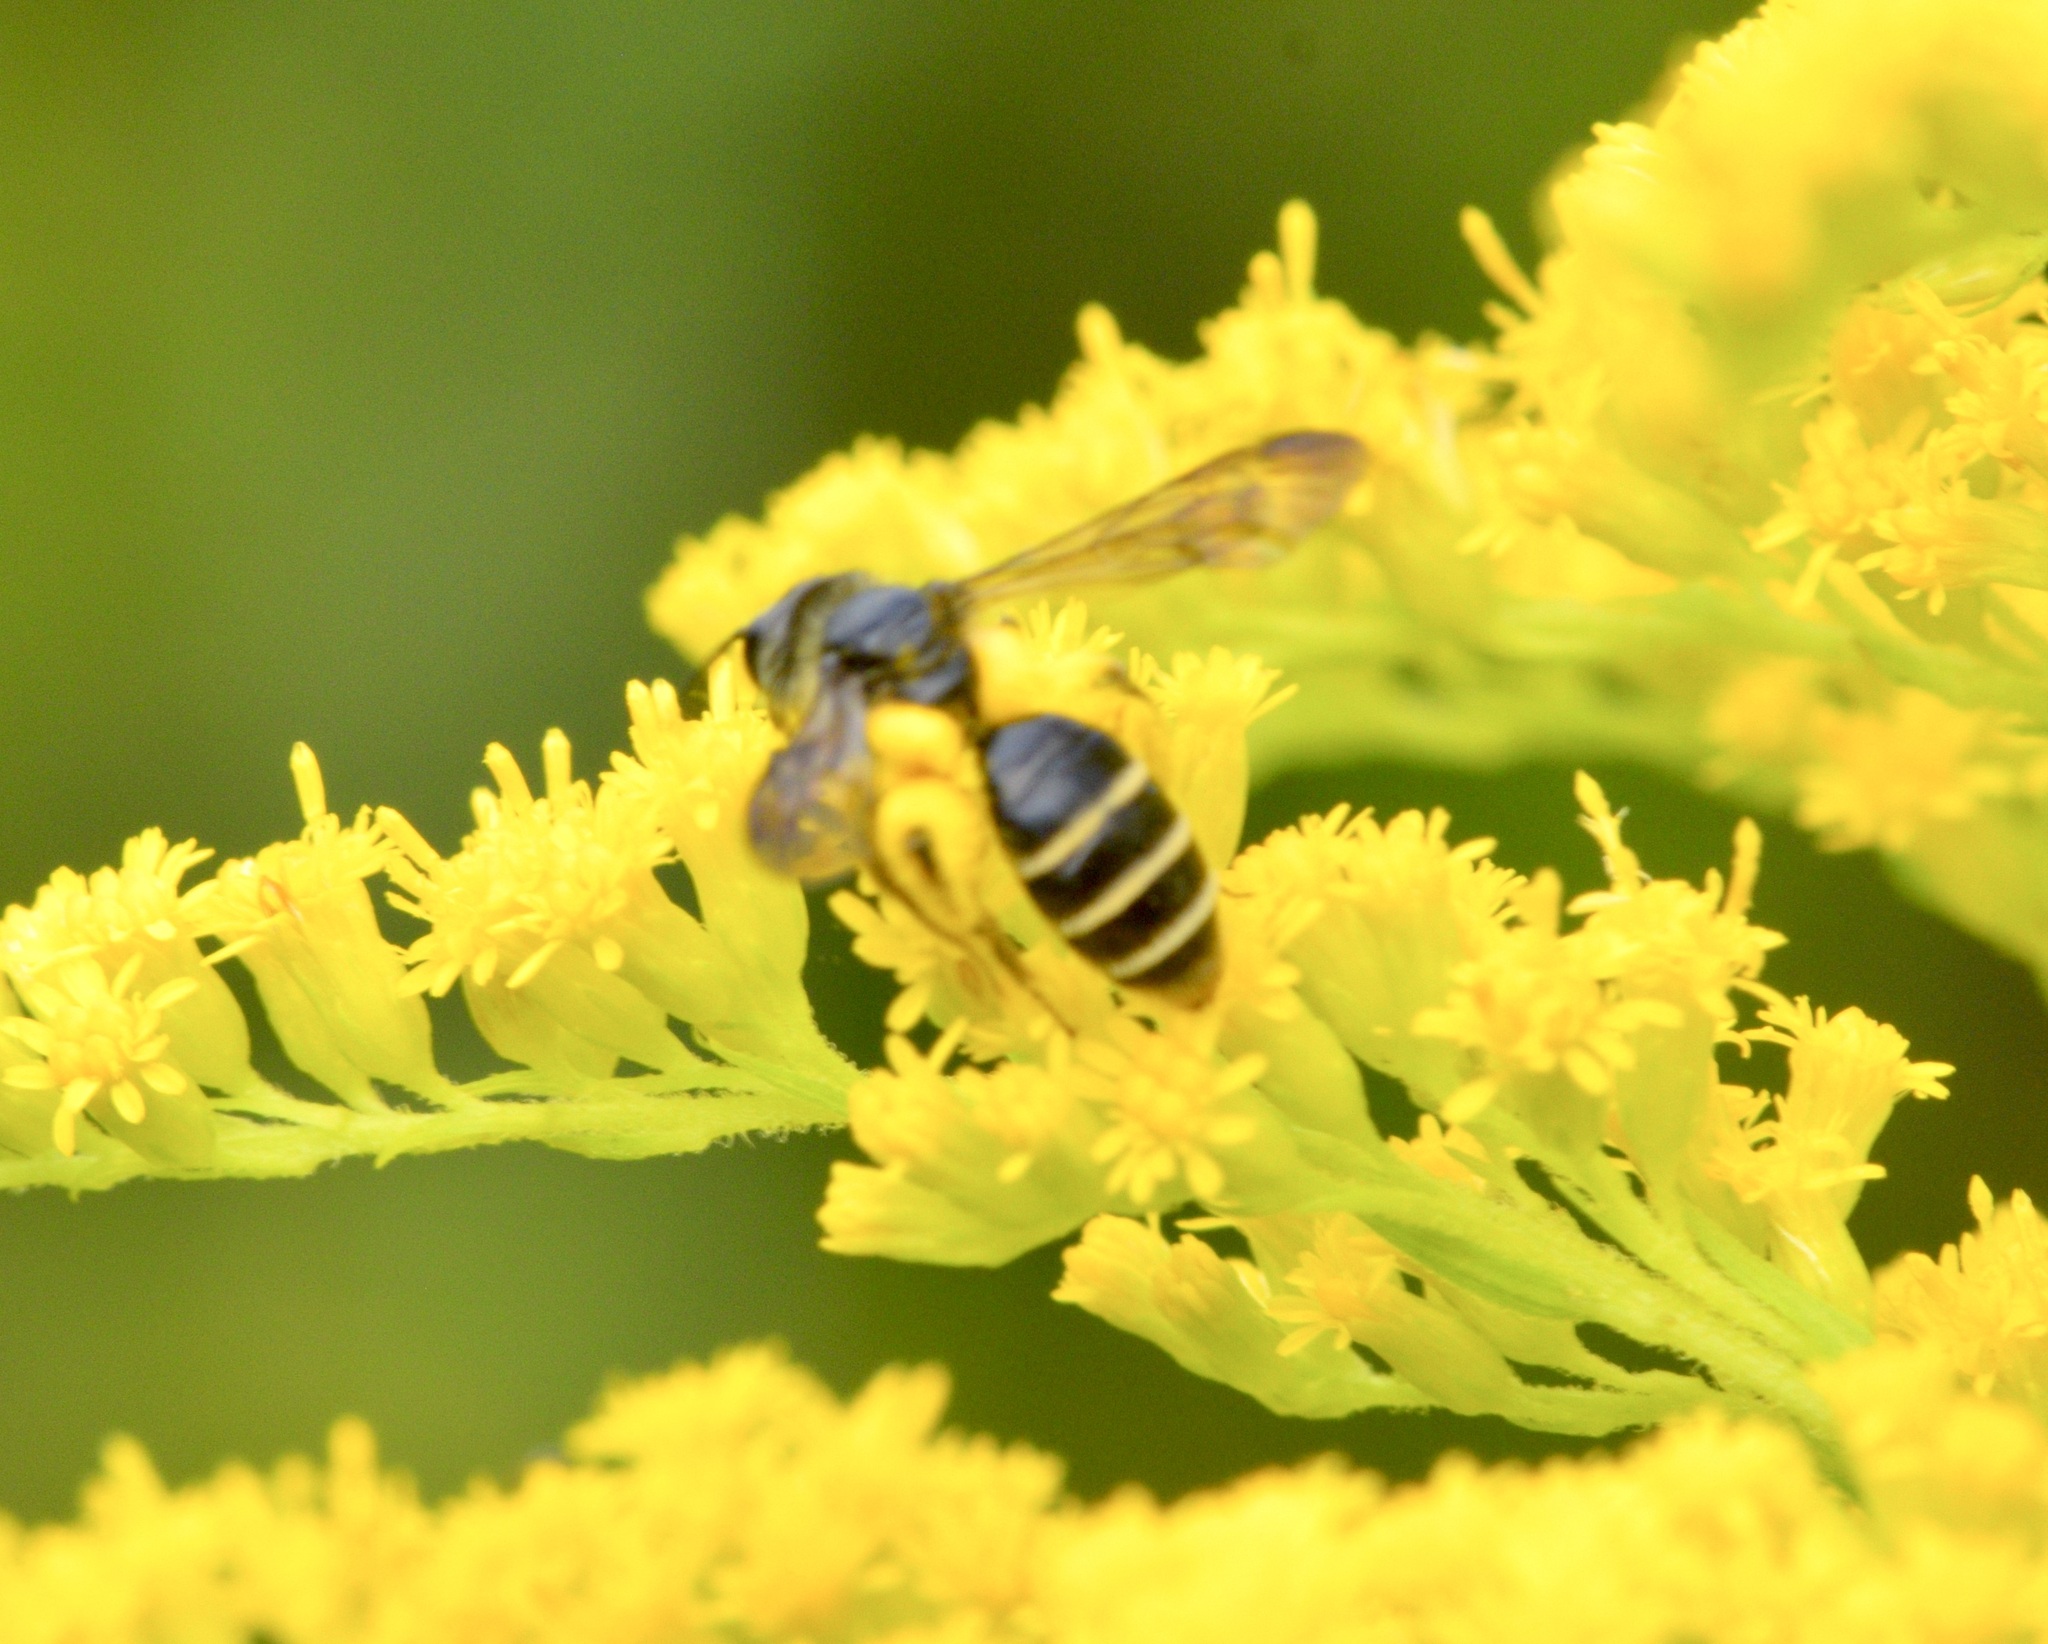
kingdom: Animalia
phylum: Arthropoda
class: Insecta
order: Hymenoptera
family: Andrenidae
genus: Andrena
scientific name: Andrena nubecula
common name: Cloudy-winged mining bee
